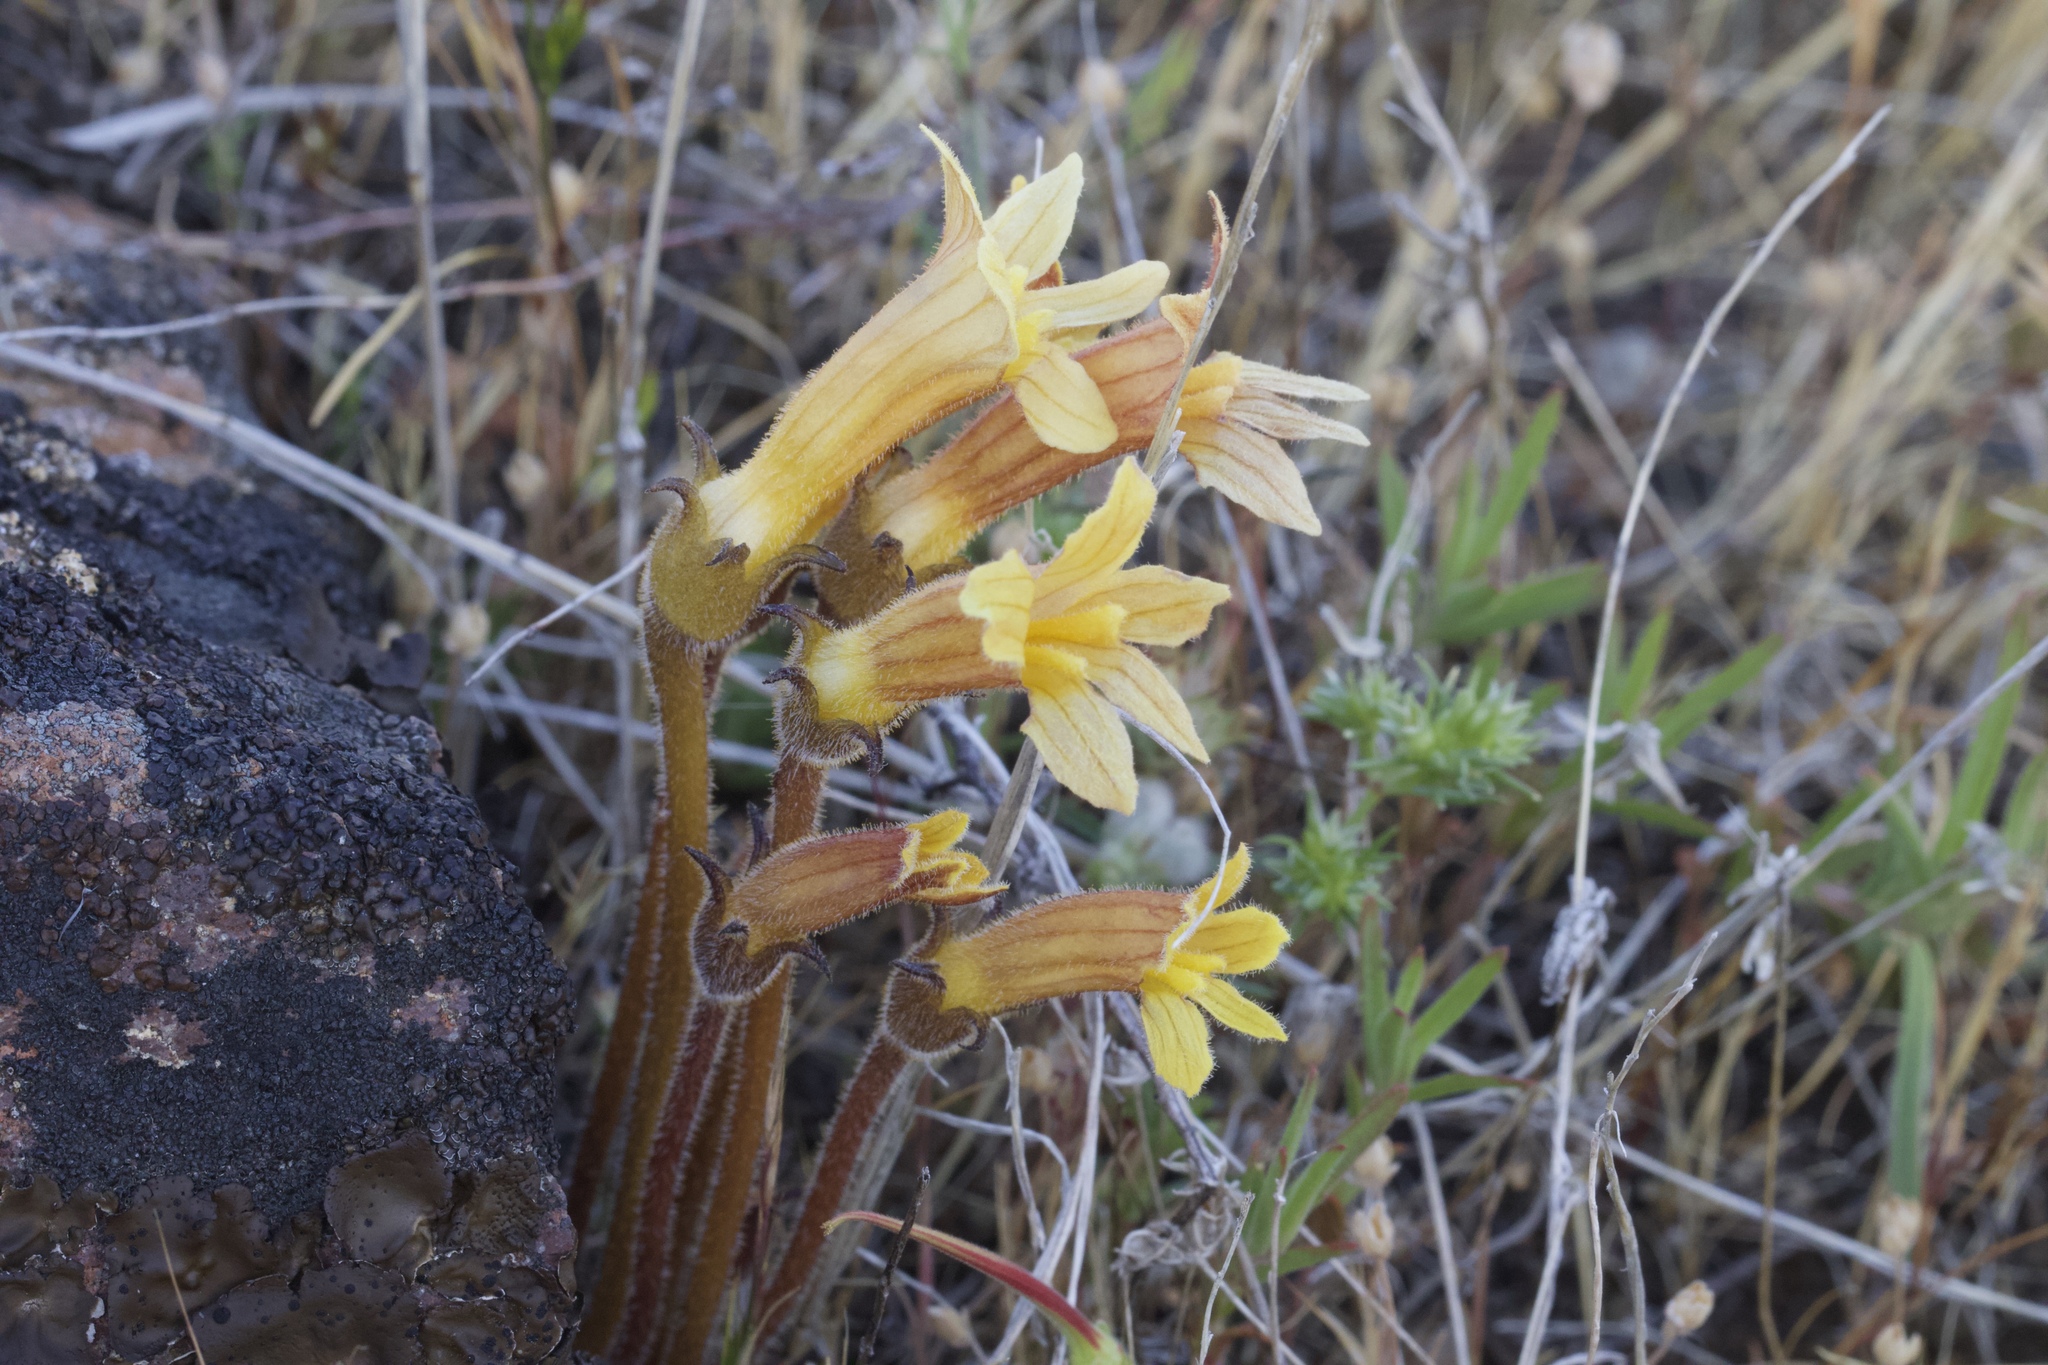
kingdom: Plantae
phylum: Tracheophyta
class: Magnoliopsida
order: Lamiales
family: Orobanchaceae
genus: Aphyllon
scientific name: Aphyllon franciscanum
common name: San francisco broomrape
